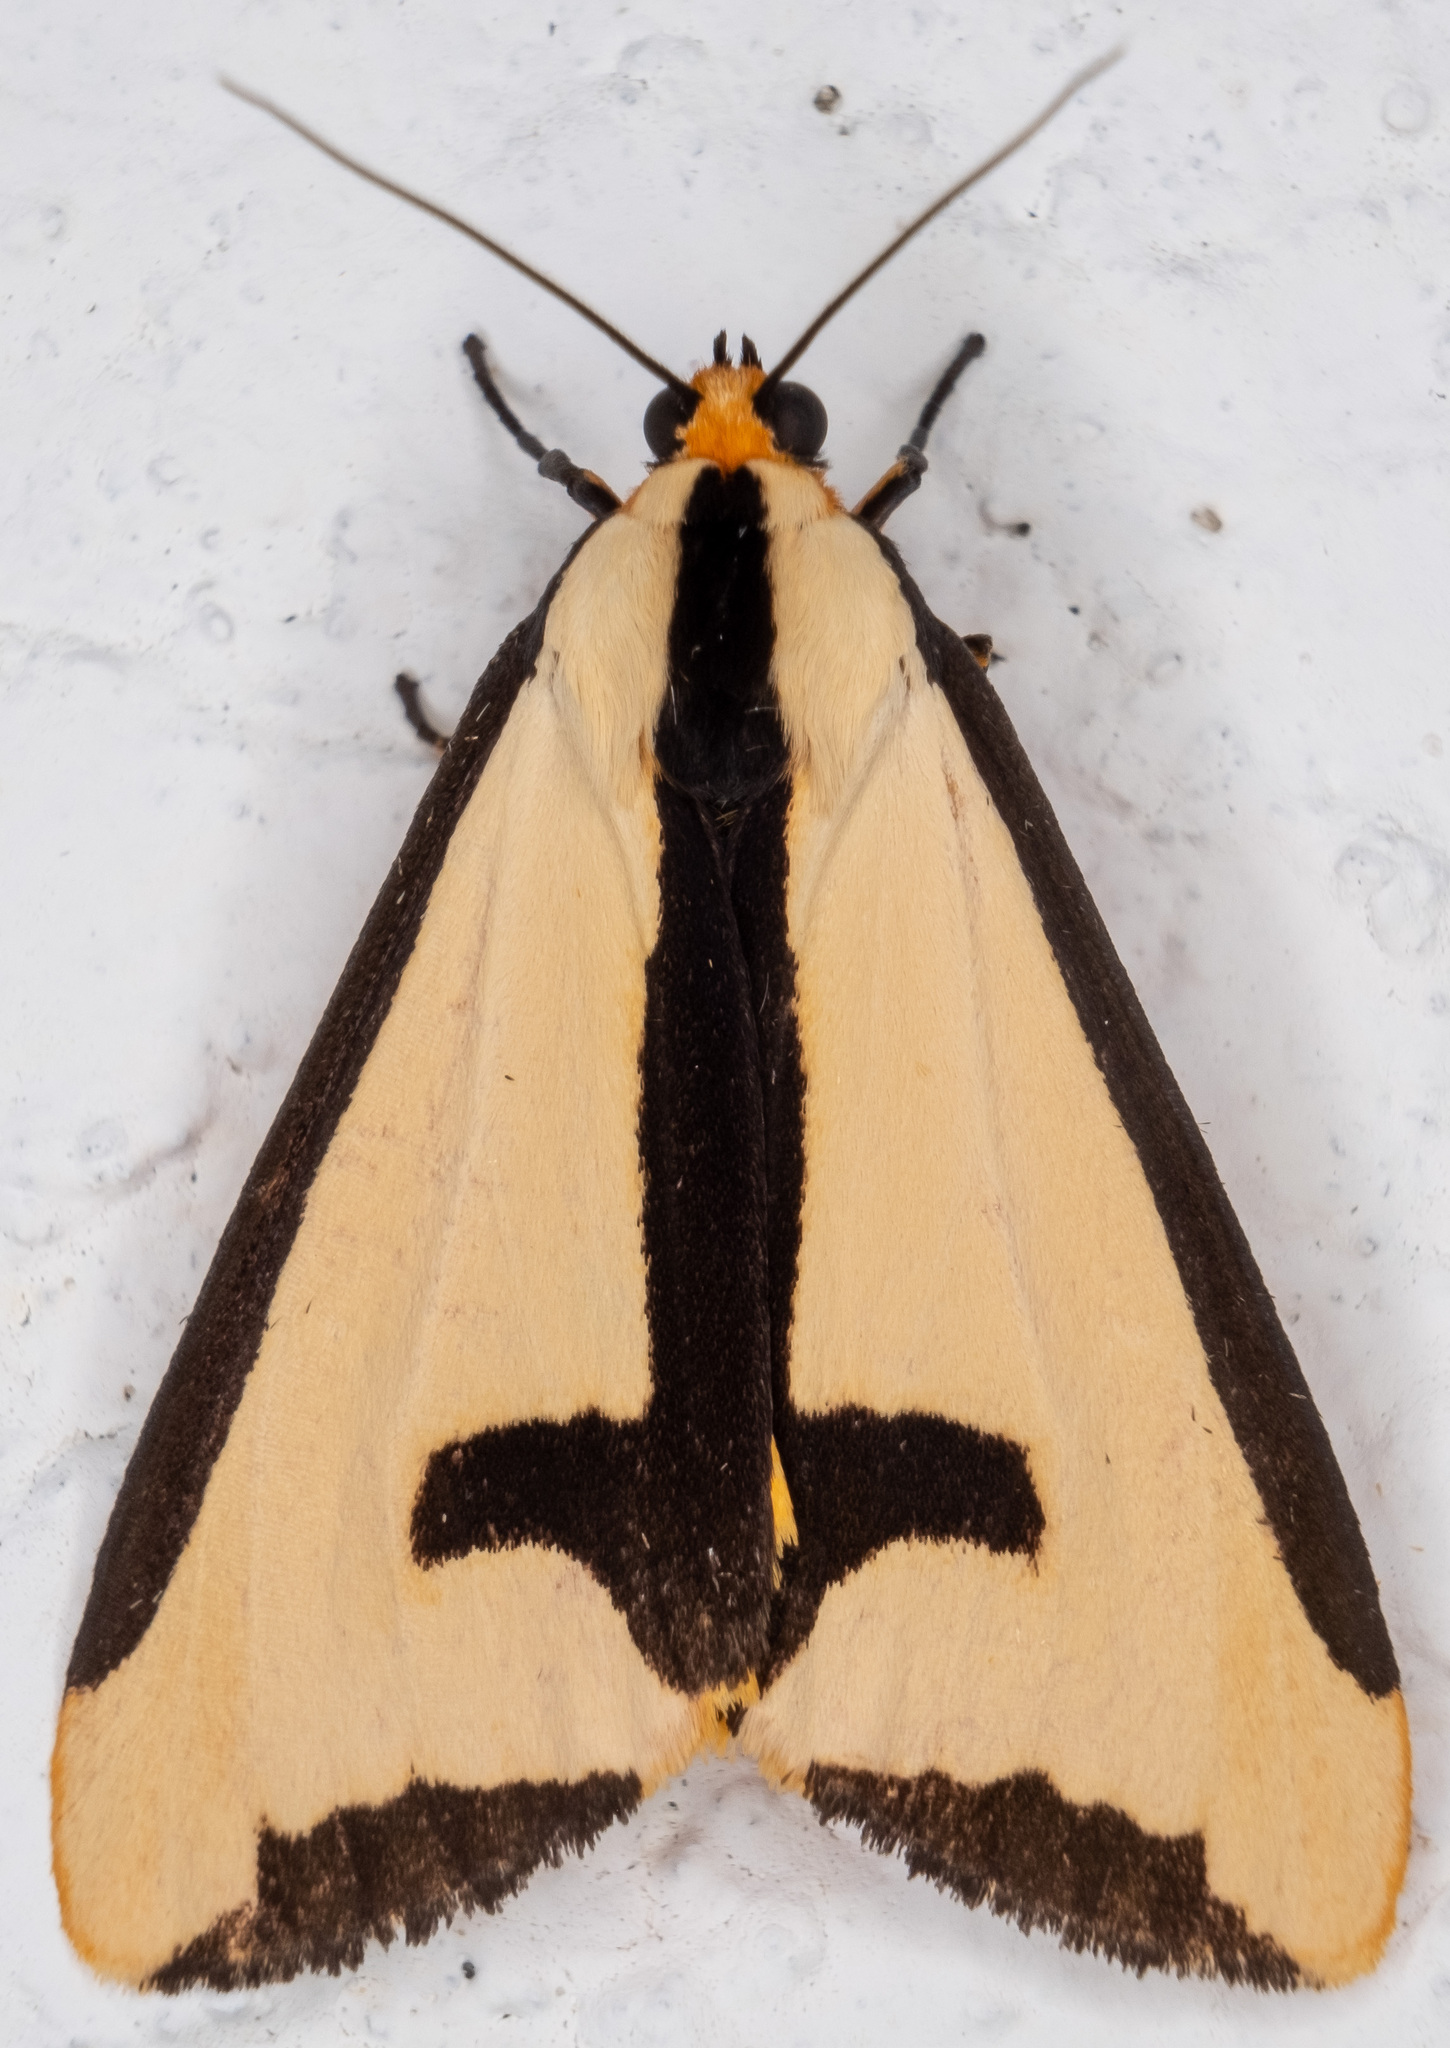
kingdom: Animalia
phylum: Arthropoda
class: Insecta
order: Lepidoptera
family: Erebidae
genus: Haploa
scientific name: Haploa clymene
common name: Clymene moth
